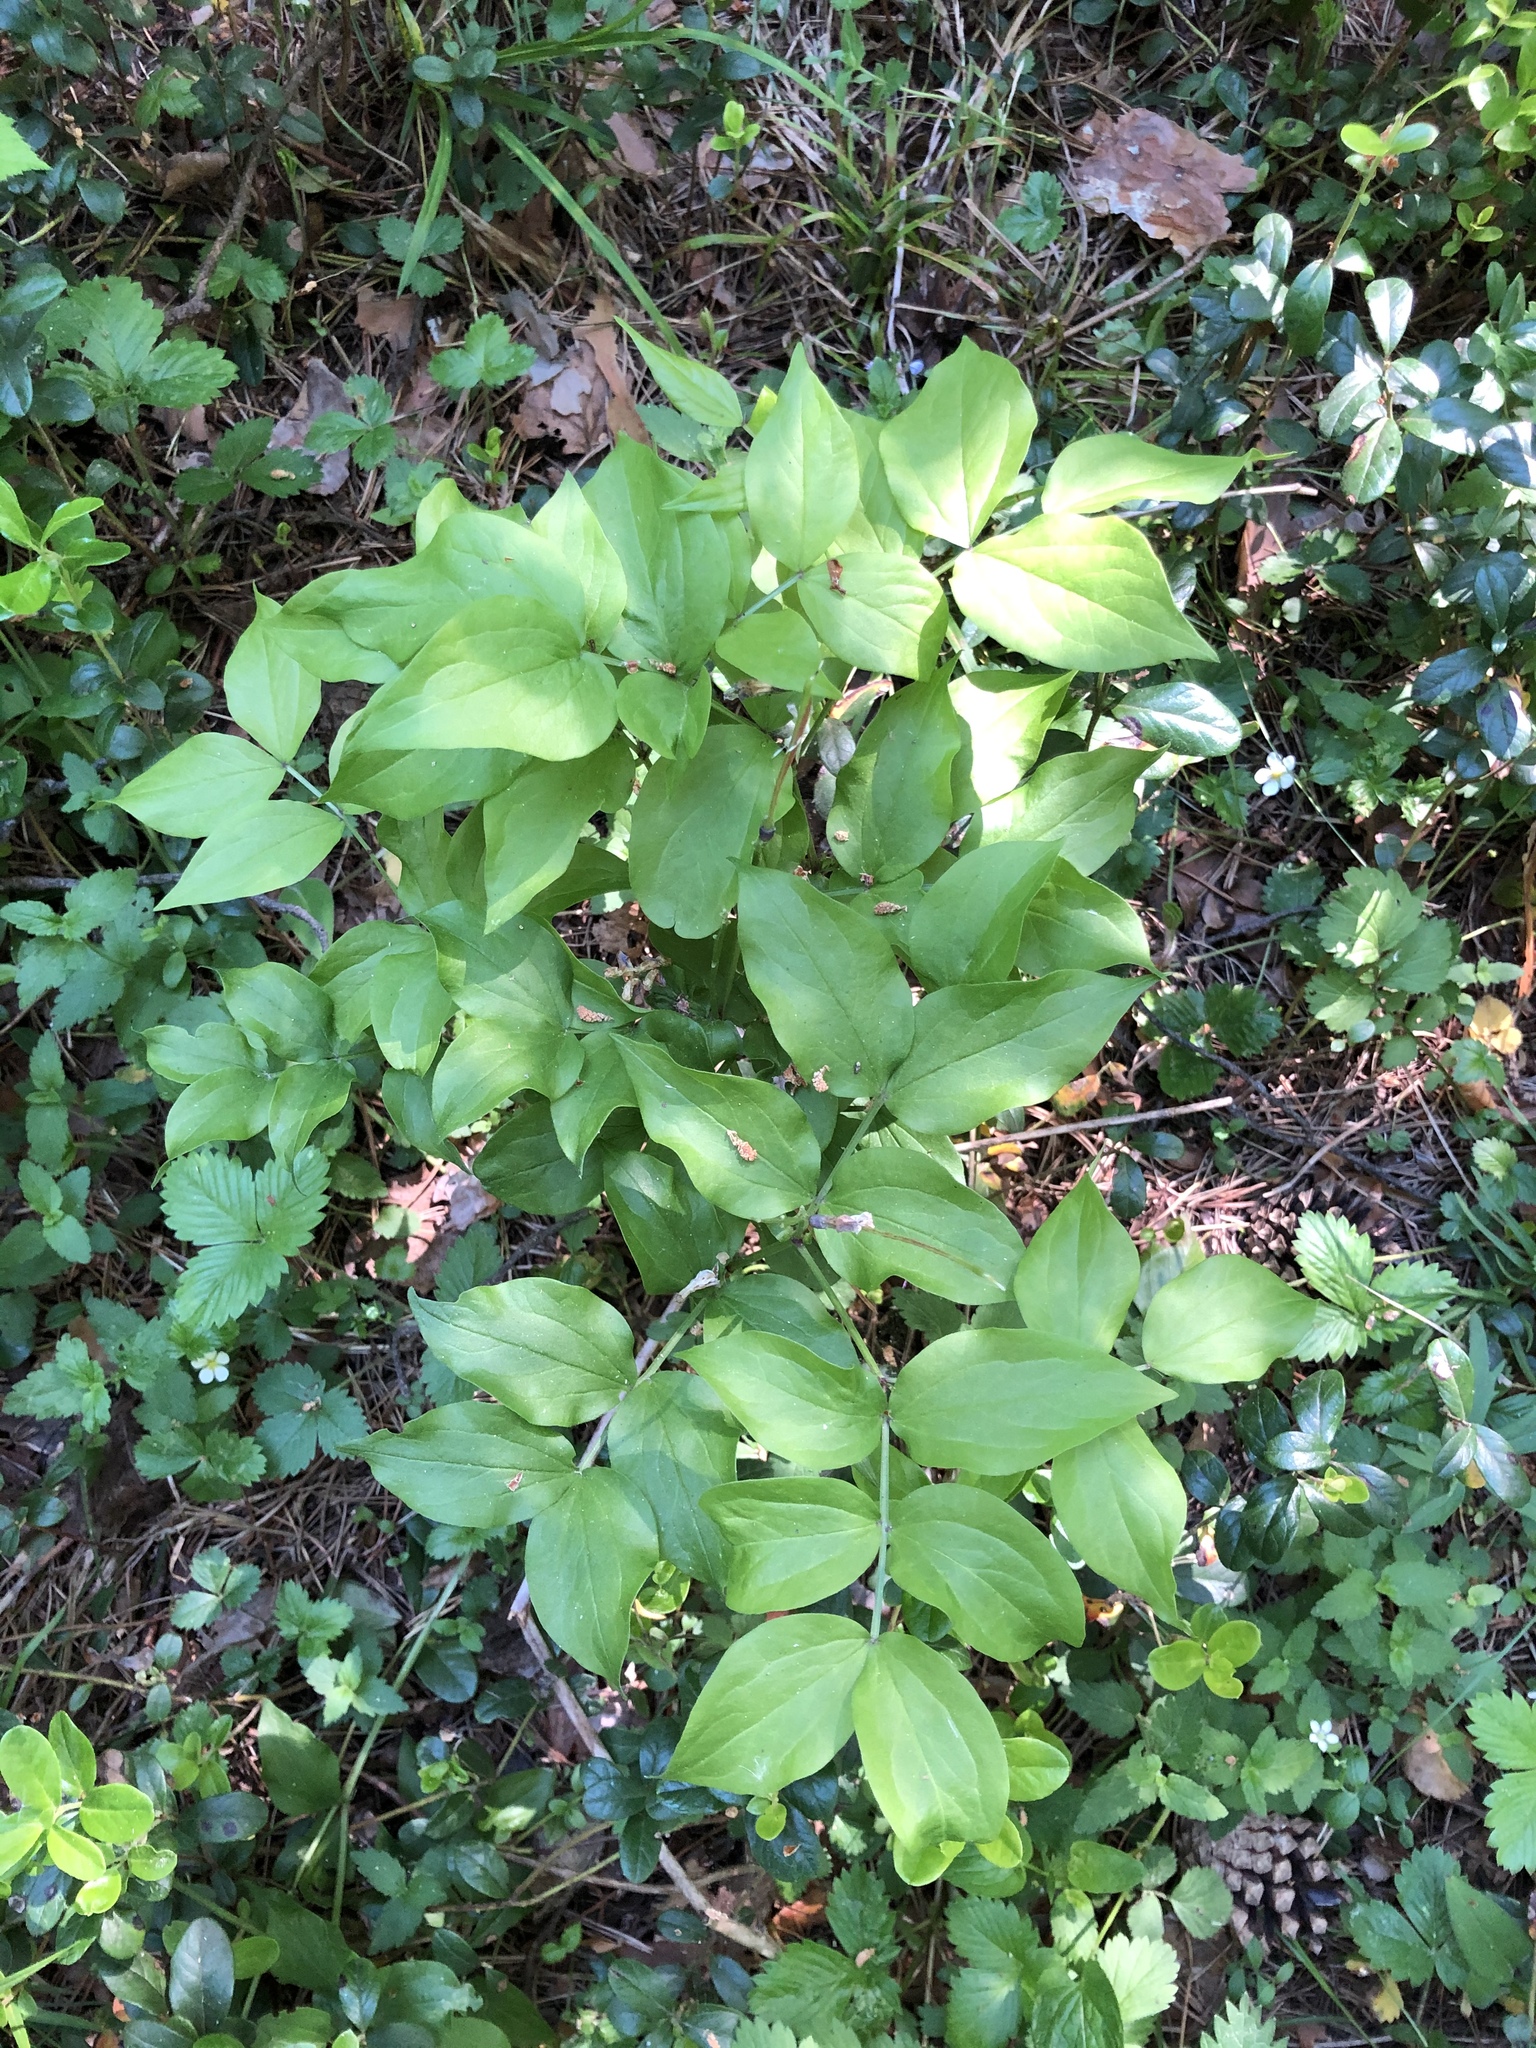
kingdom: Plantae
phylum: Tracheophyta
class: Magnoliopsida
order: Fabales
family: Fabaceae
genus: Lathyrus
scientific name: Lathyrus vernus
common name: Spring pea
